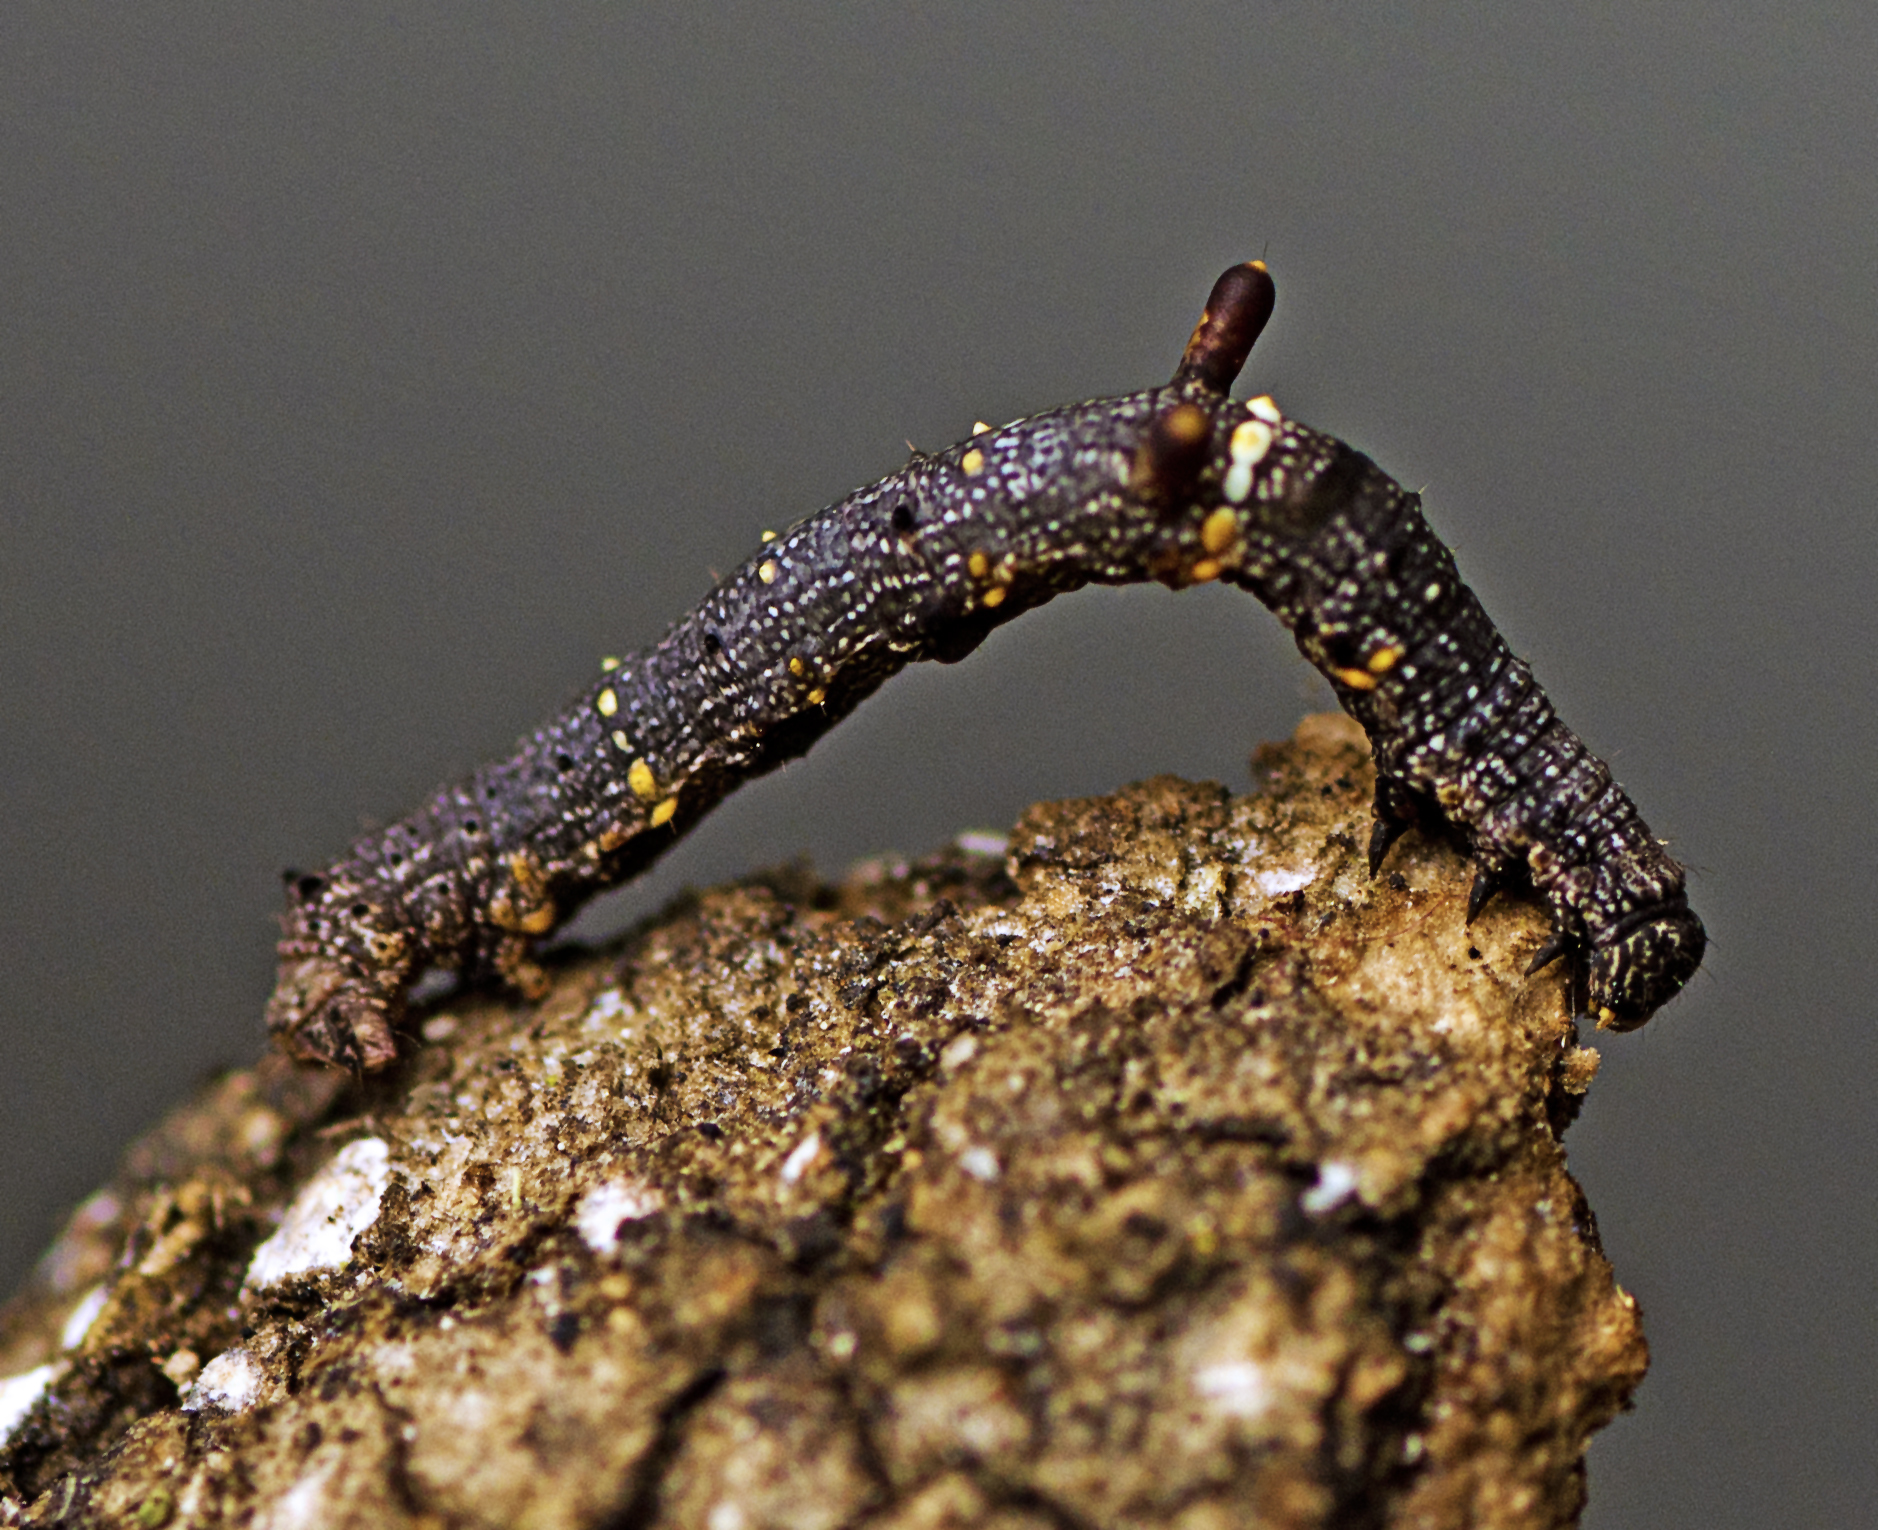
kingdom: Animalia
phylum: Arthropoda
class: Insecta
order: Lepidoptera
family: Geometridae
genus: Gonodontis
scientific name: Gonodontis luteola
